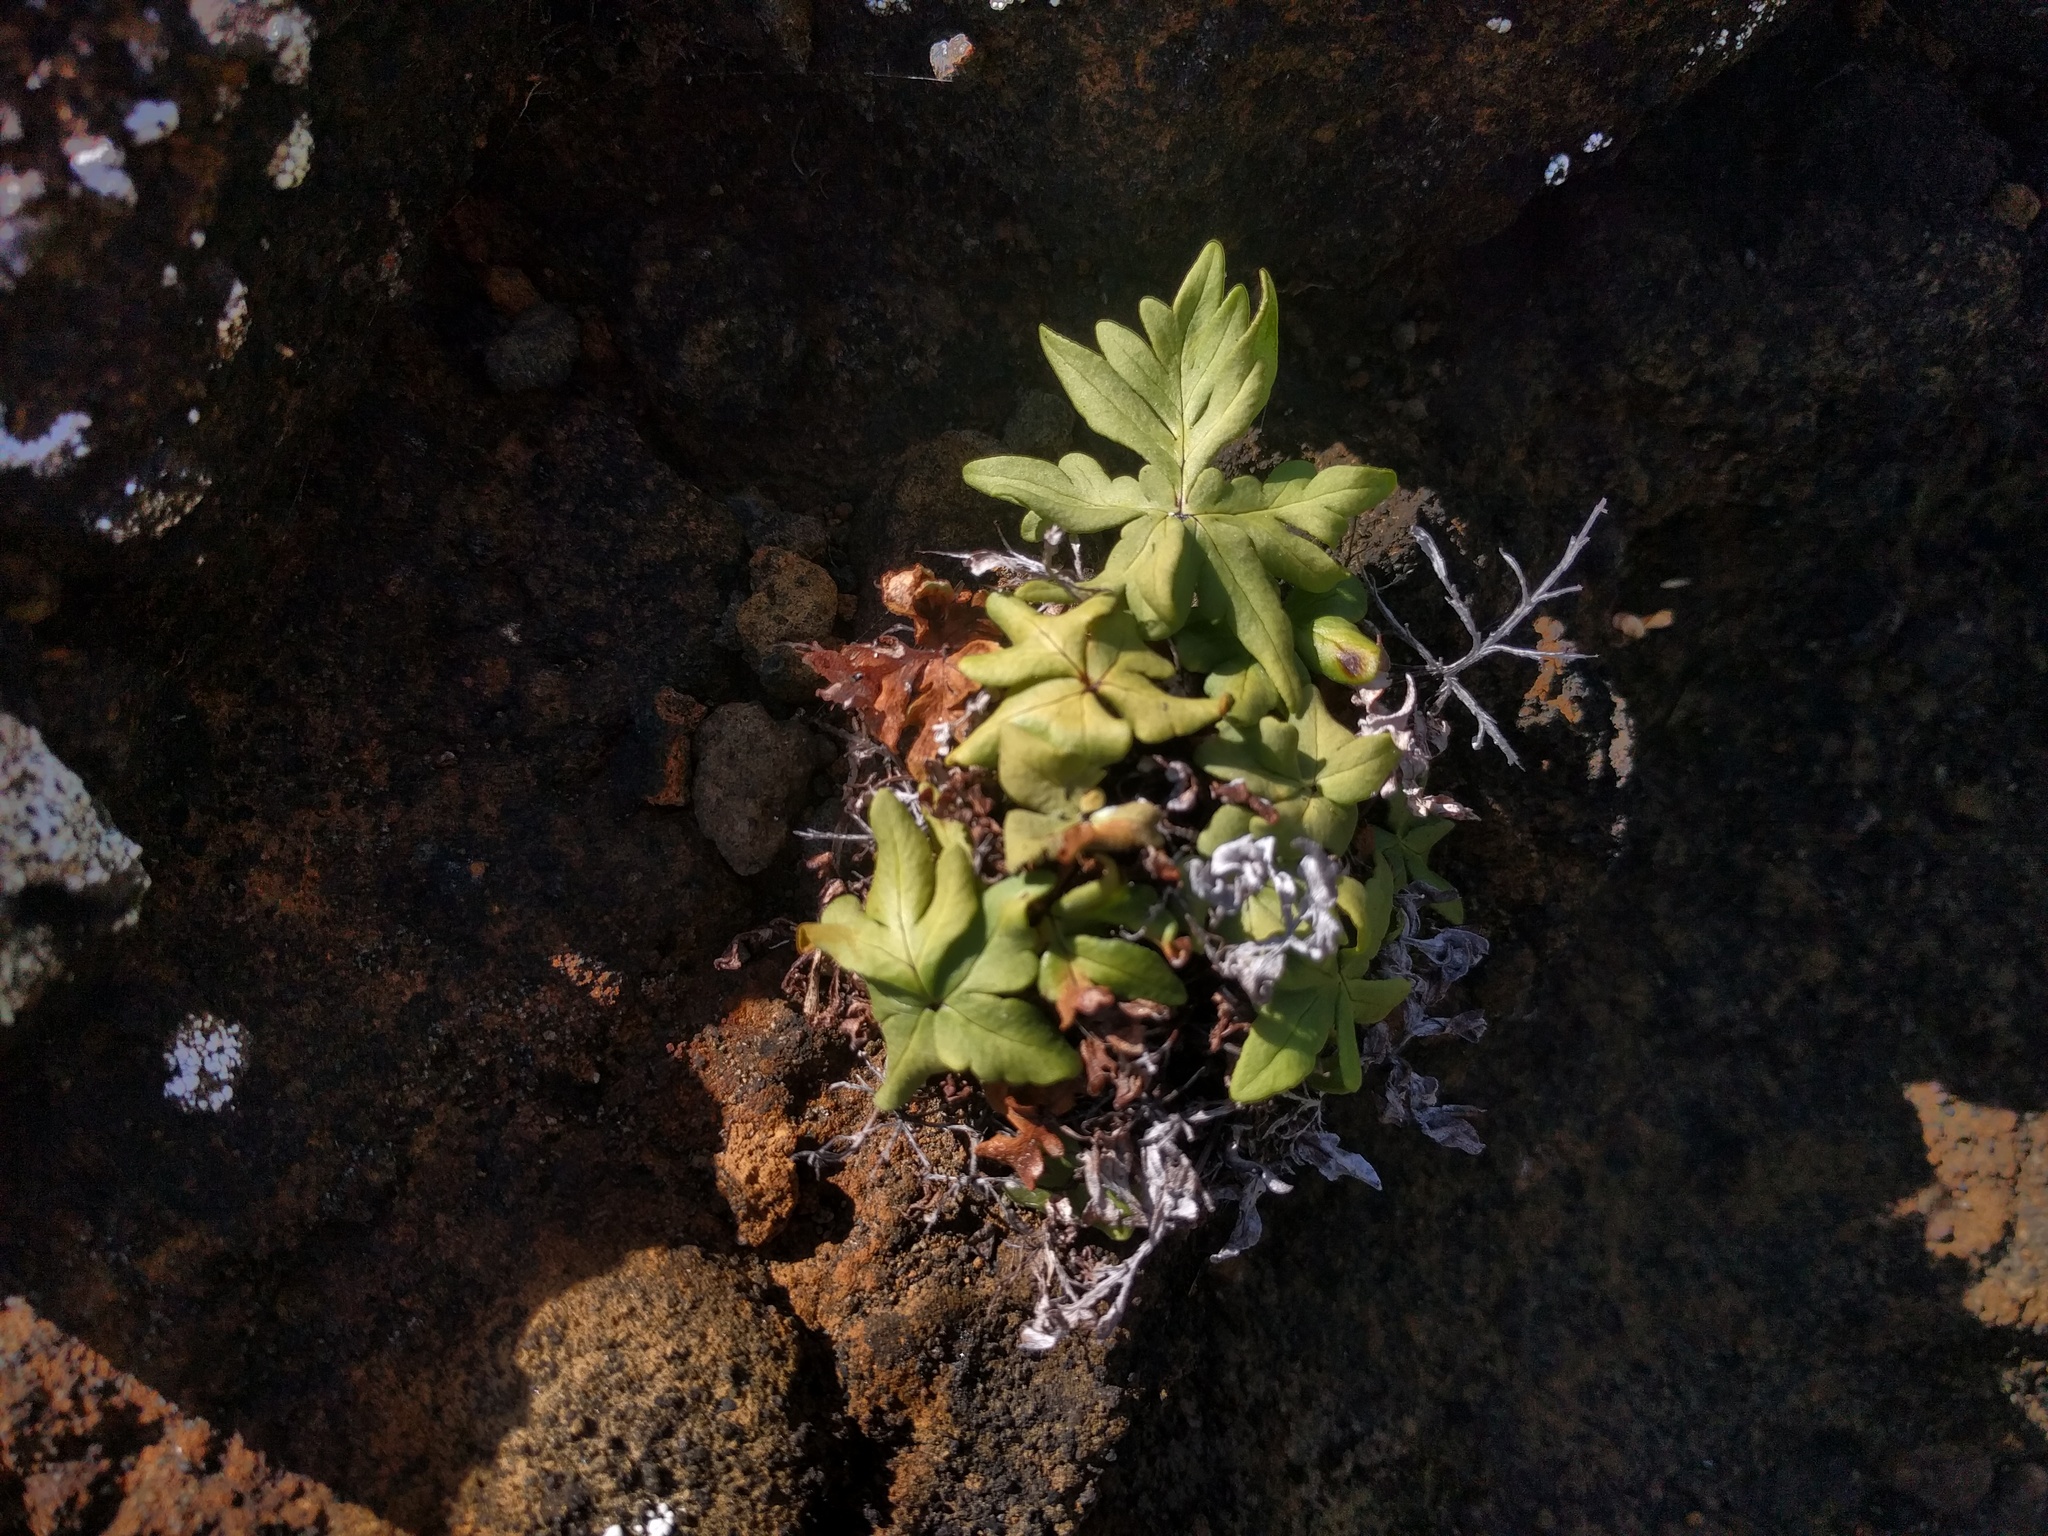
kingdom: Plantae
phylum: Tracheophyta
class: Polypodiopsida
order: Polypodiales
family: Pteridaceae
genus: Doryopteris
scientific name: Doryopteris decipiens
